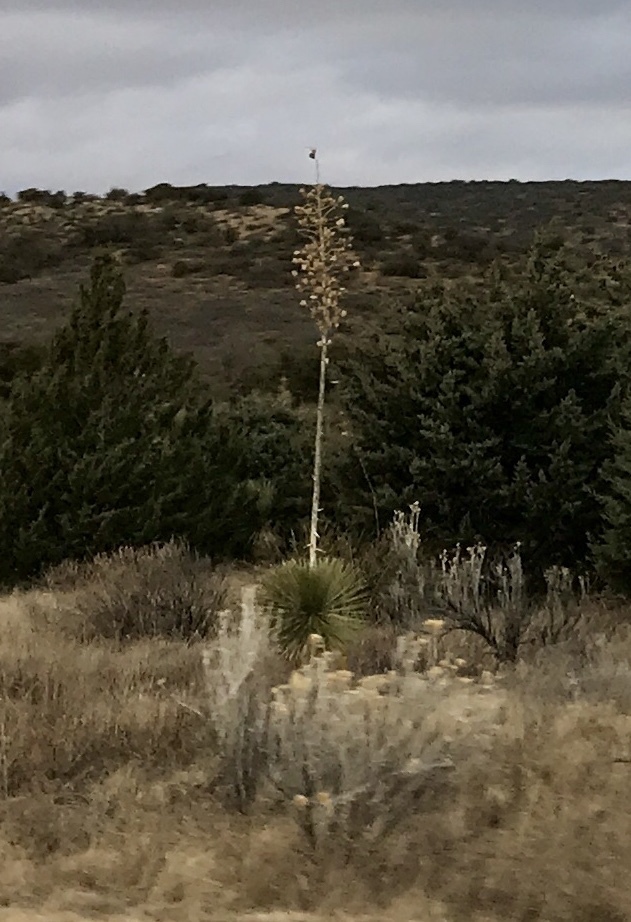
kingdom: Plantae
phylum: Tracheophyta
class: Liliopsida
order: Asparagales
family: Asparagaceae
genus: Yucca
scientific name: Yucca elata
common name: Palmella
